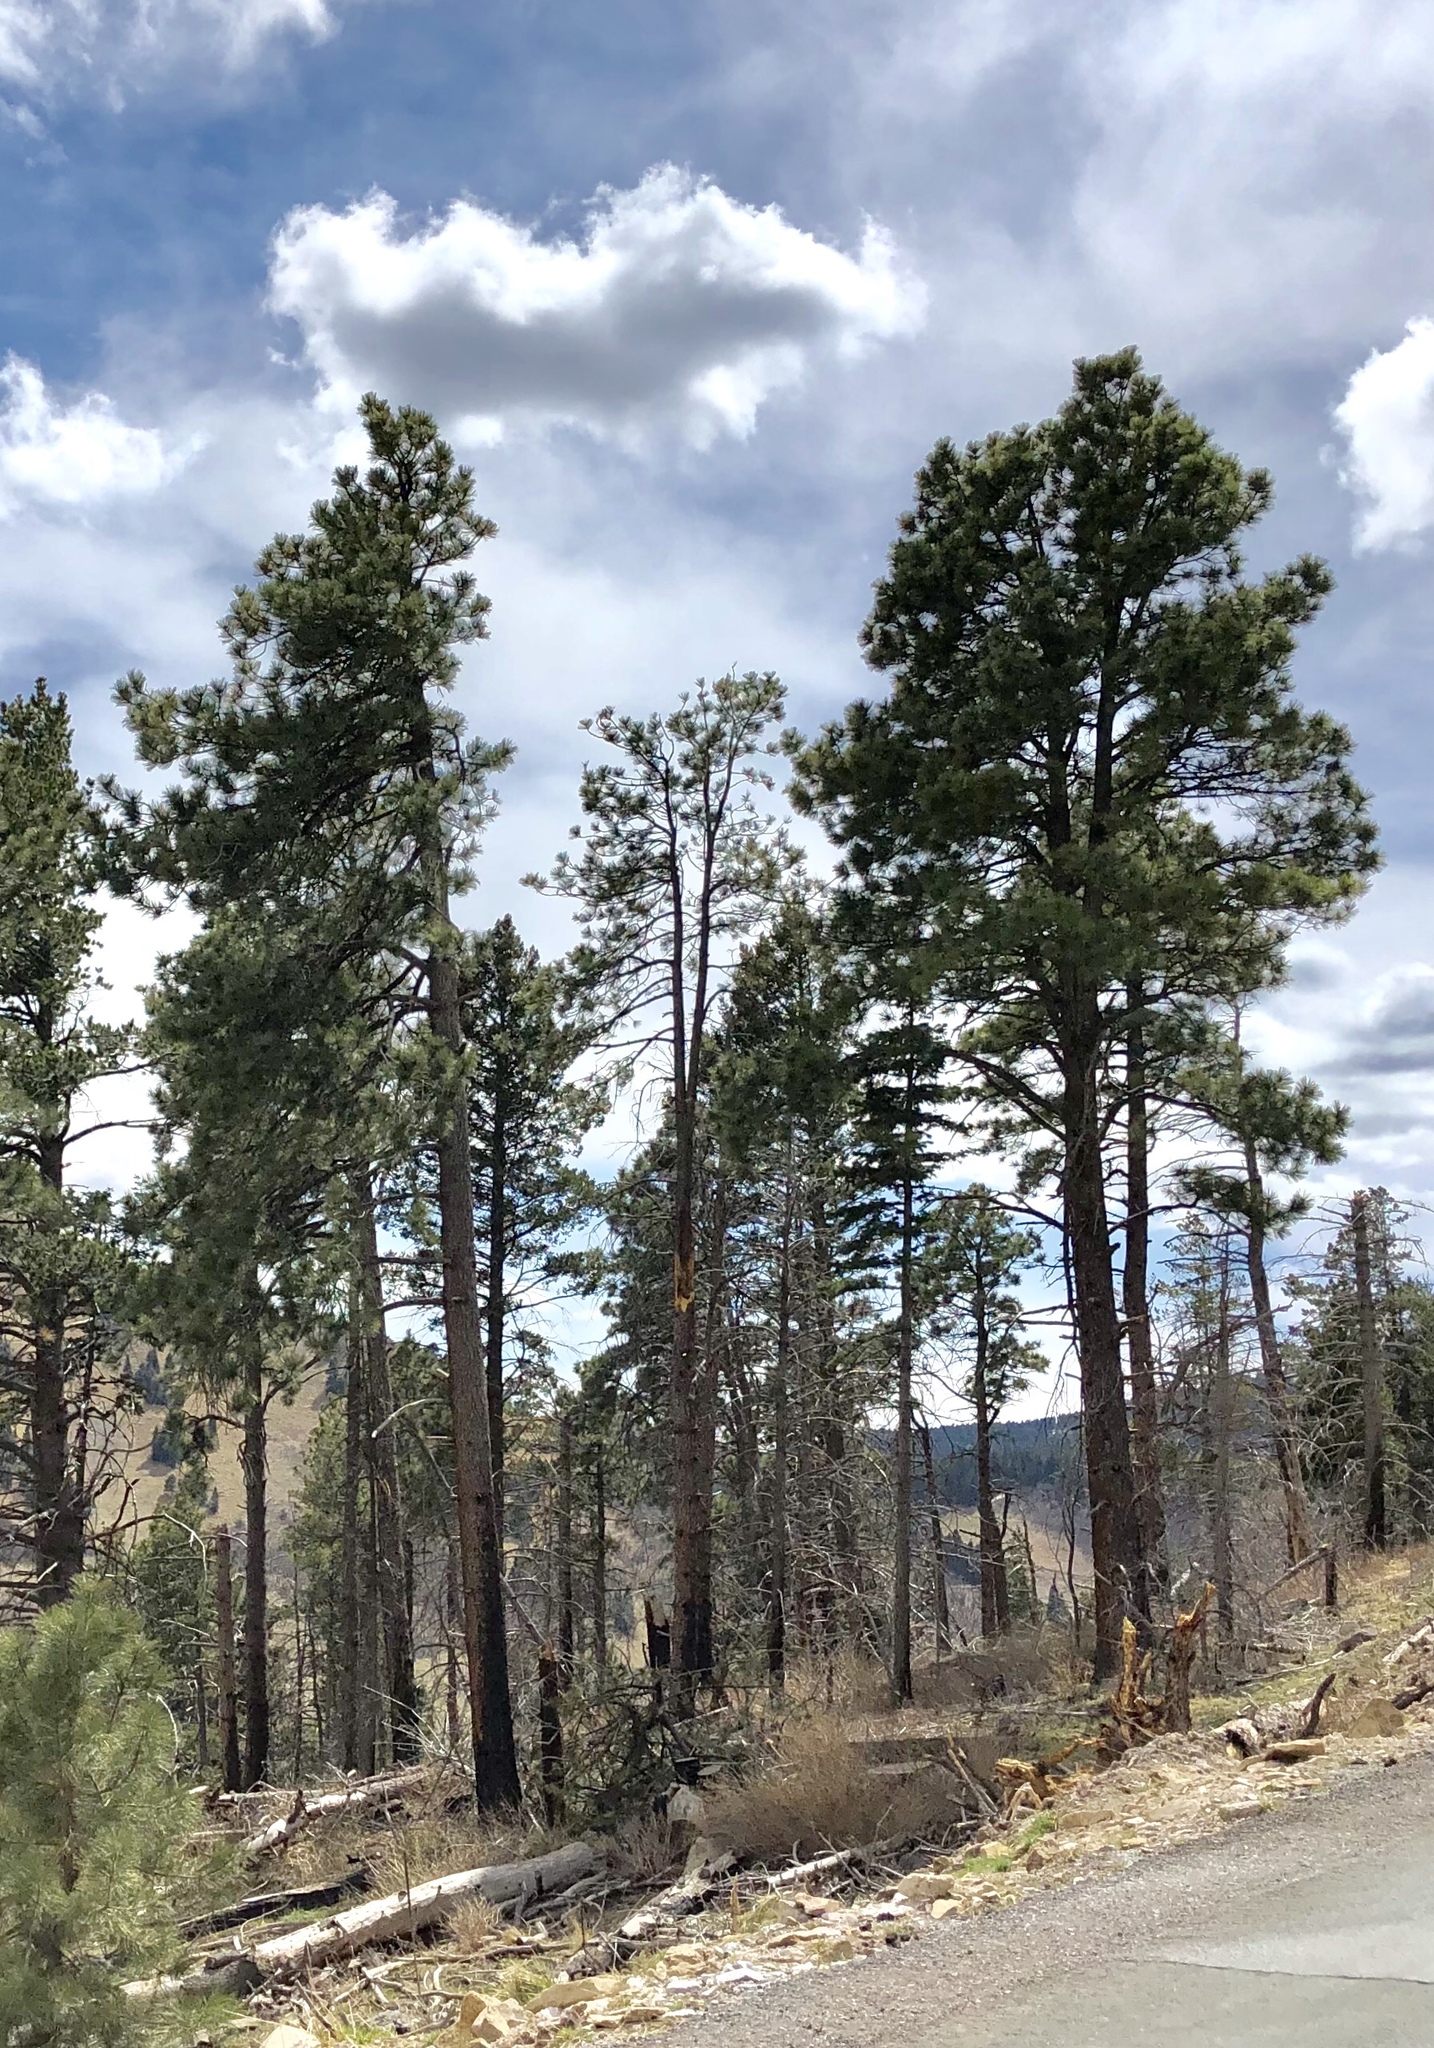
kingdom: Plantae
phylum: Tracheophyta
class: Pinopsida
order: Pinales
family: Pinaceae
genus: Pinus
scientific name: Pinus ponderosa
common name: Western yellow-pine
